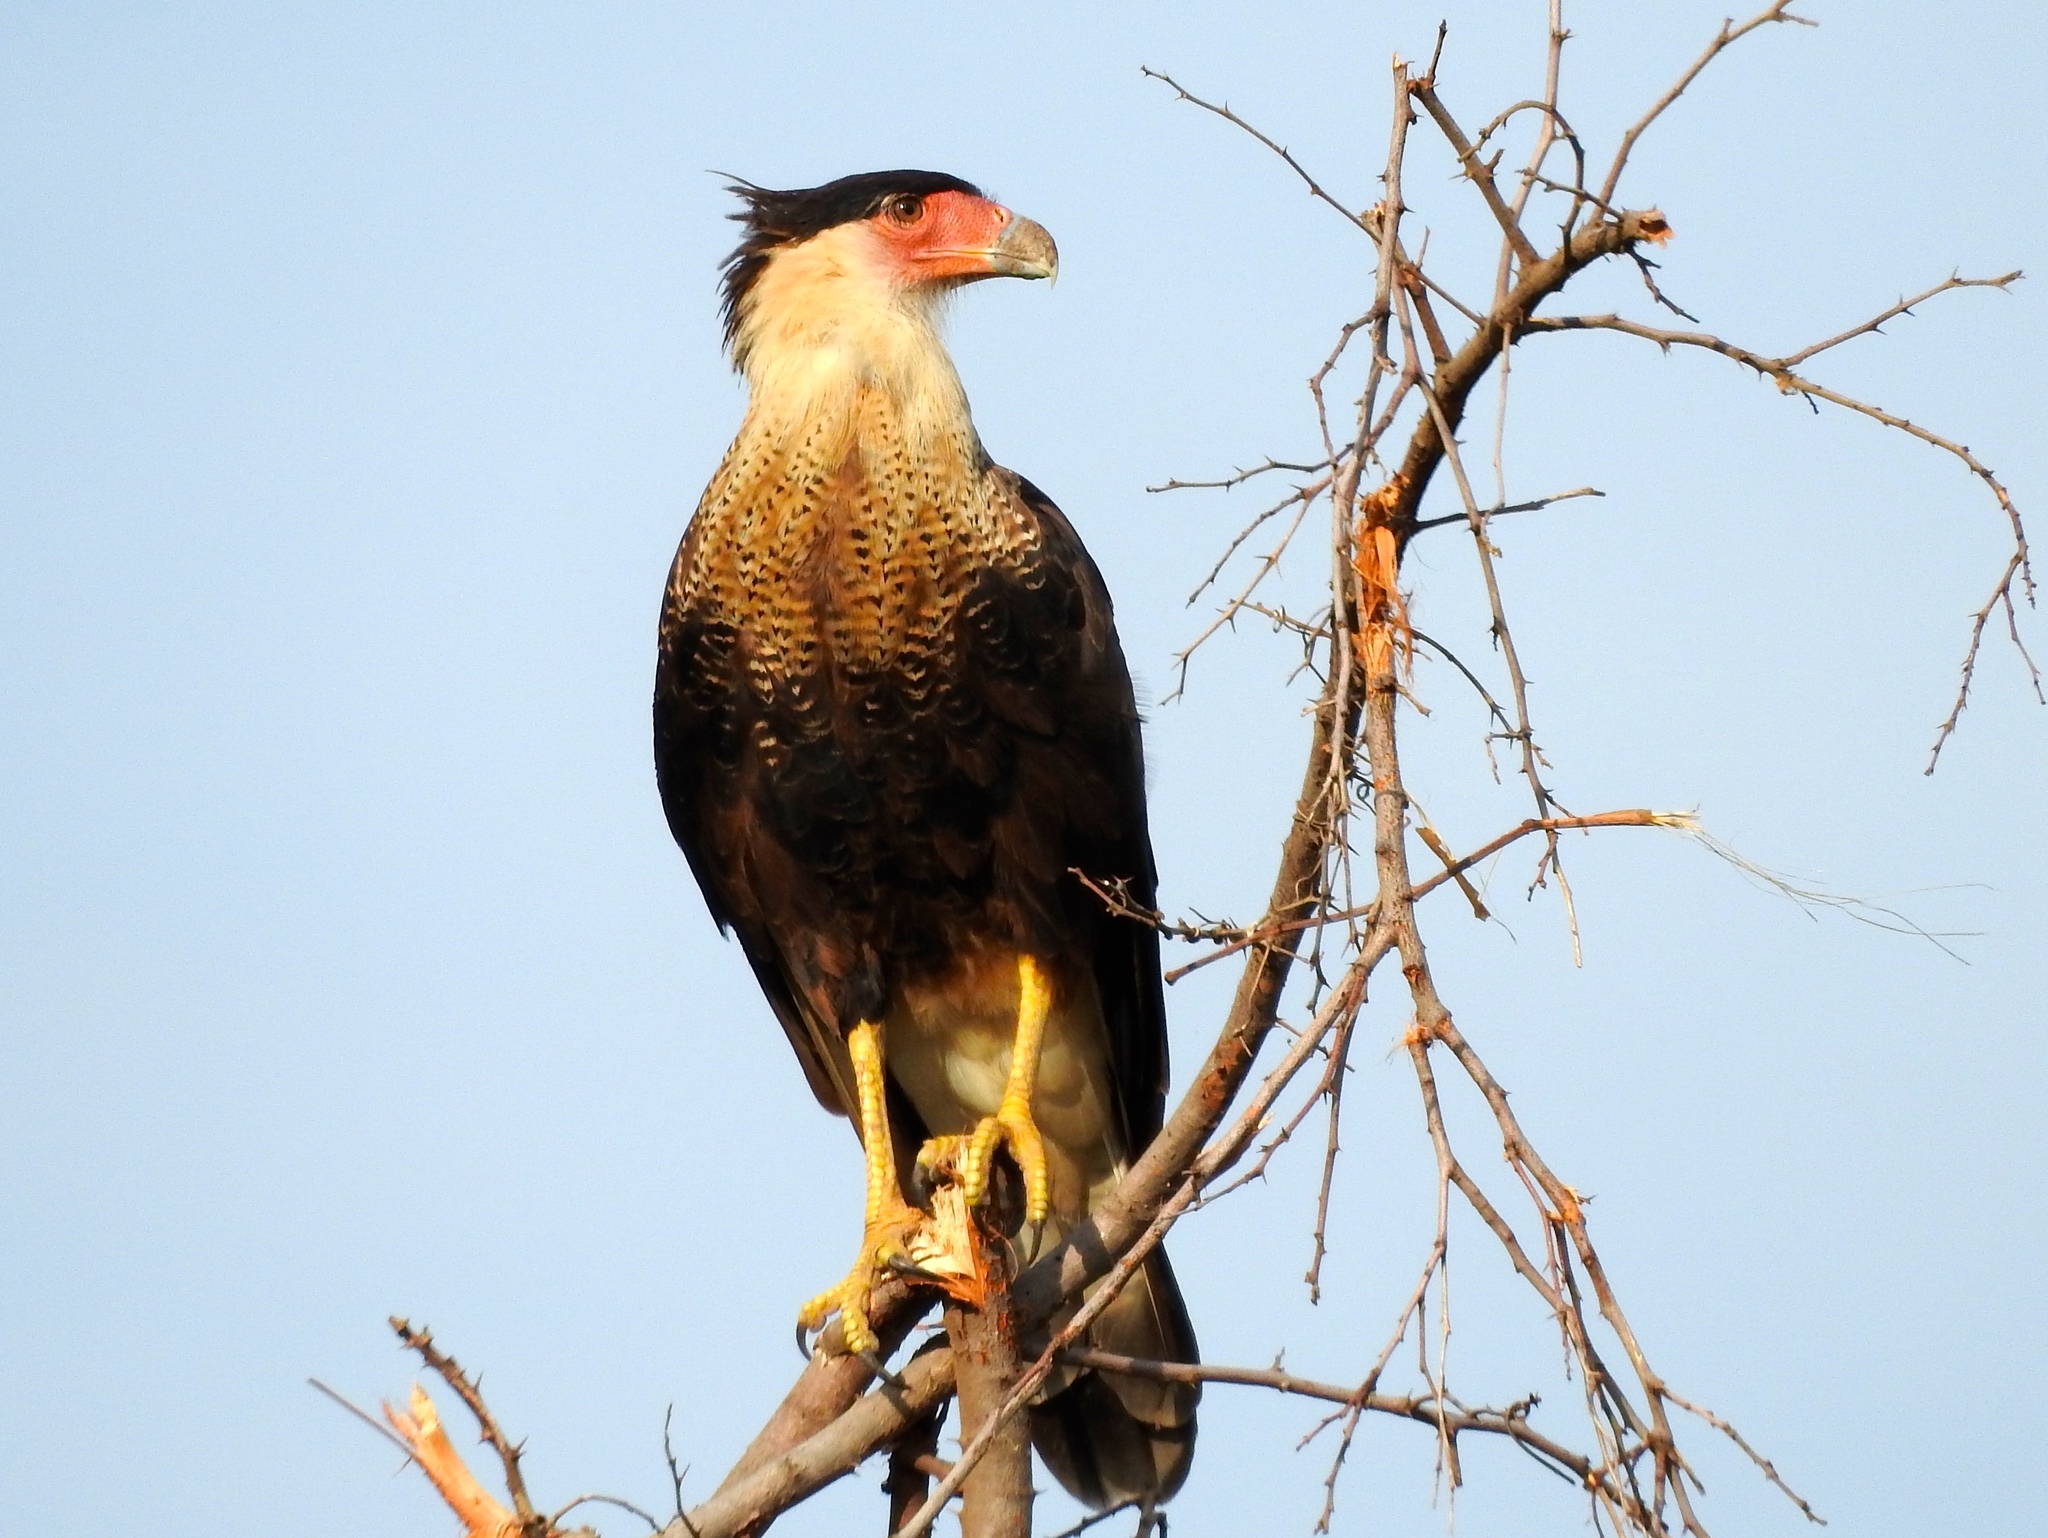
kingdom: Animalia
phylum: Chordata
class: Aves
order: Falconiformes
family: Falconidae
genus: Caracara
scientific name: Caracara plancus
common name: Southern caracara
